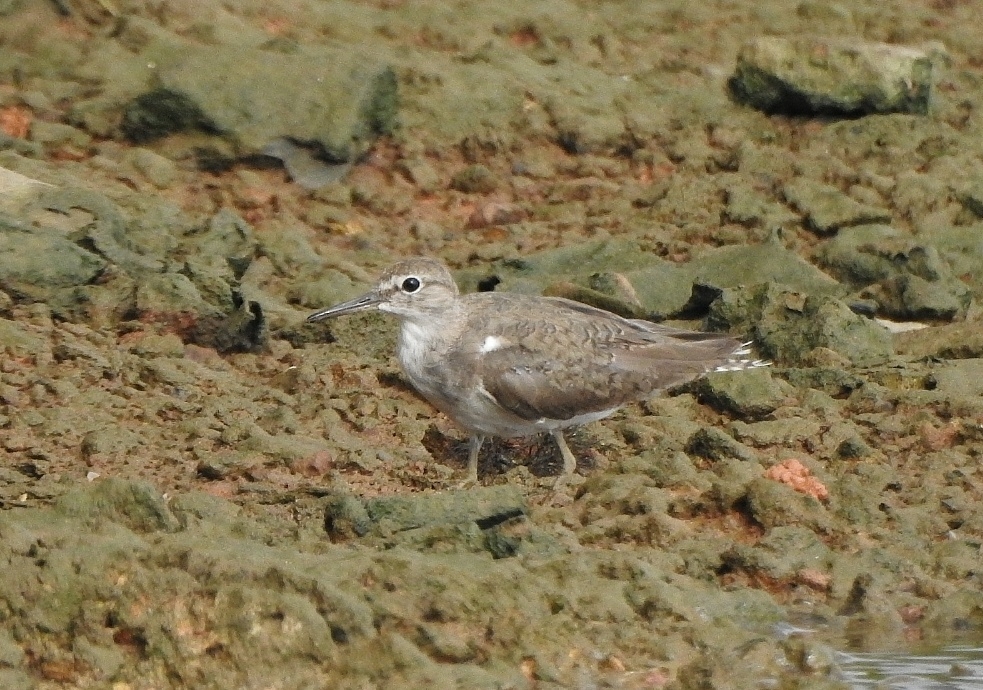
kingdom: Animalia
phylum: Chordata
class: Aves
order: Charadriiformes
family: Scolopacidae
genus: Actitis
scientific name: Actitis hypoleucos
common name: Common sandpiper
